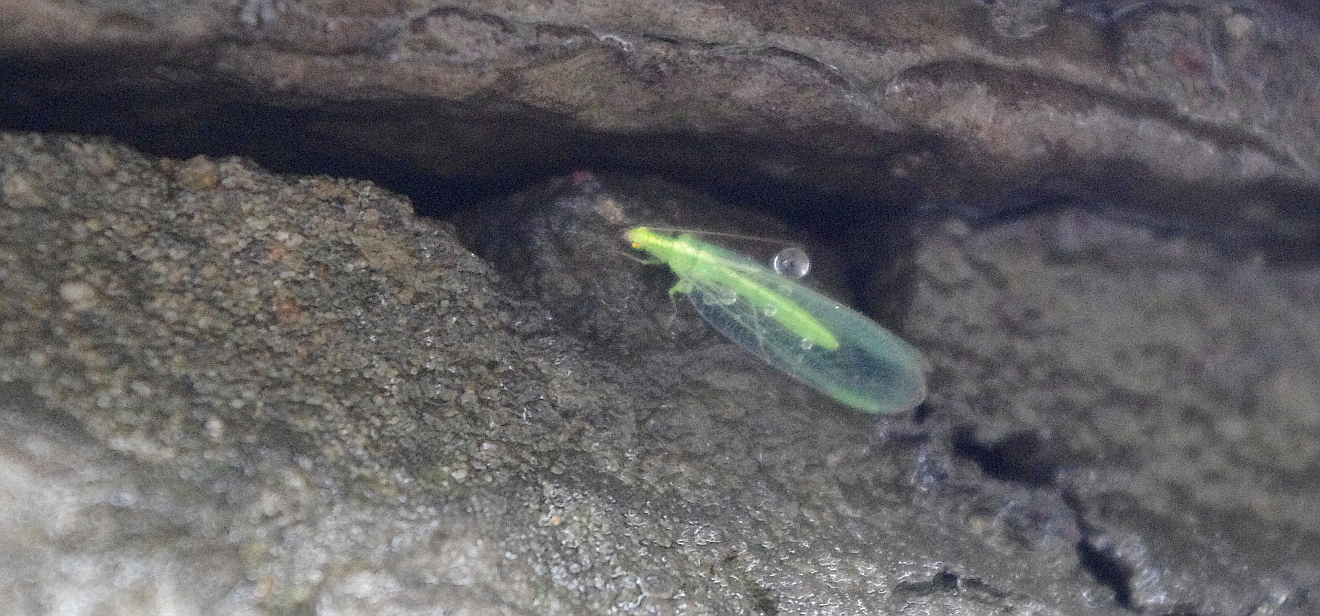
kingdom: Animalia
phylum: Arthropoda
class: Insecta
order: Neuroptera
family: Chrysopidae
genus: Chrysoperla
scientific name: Chrysoperla
